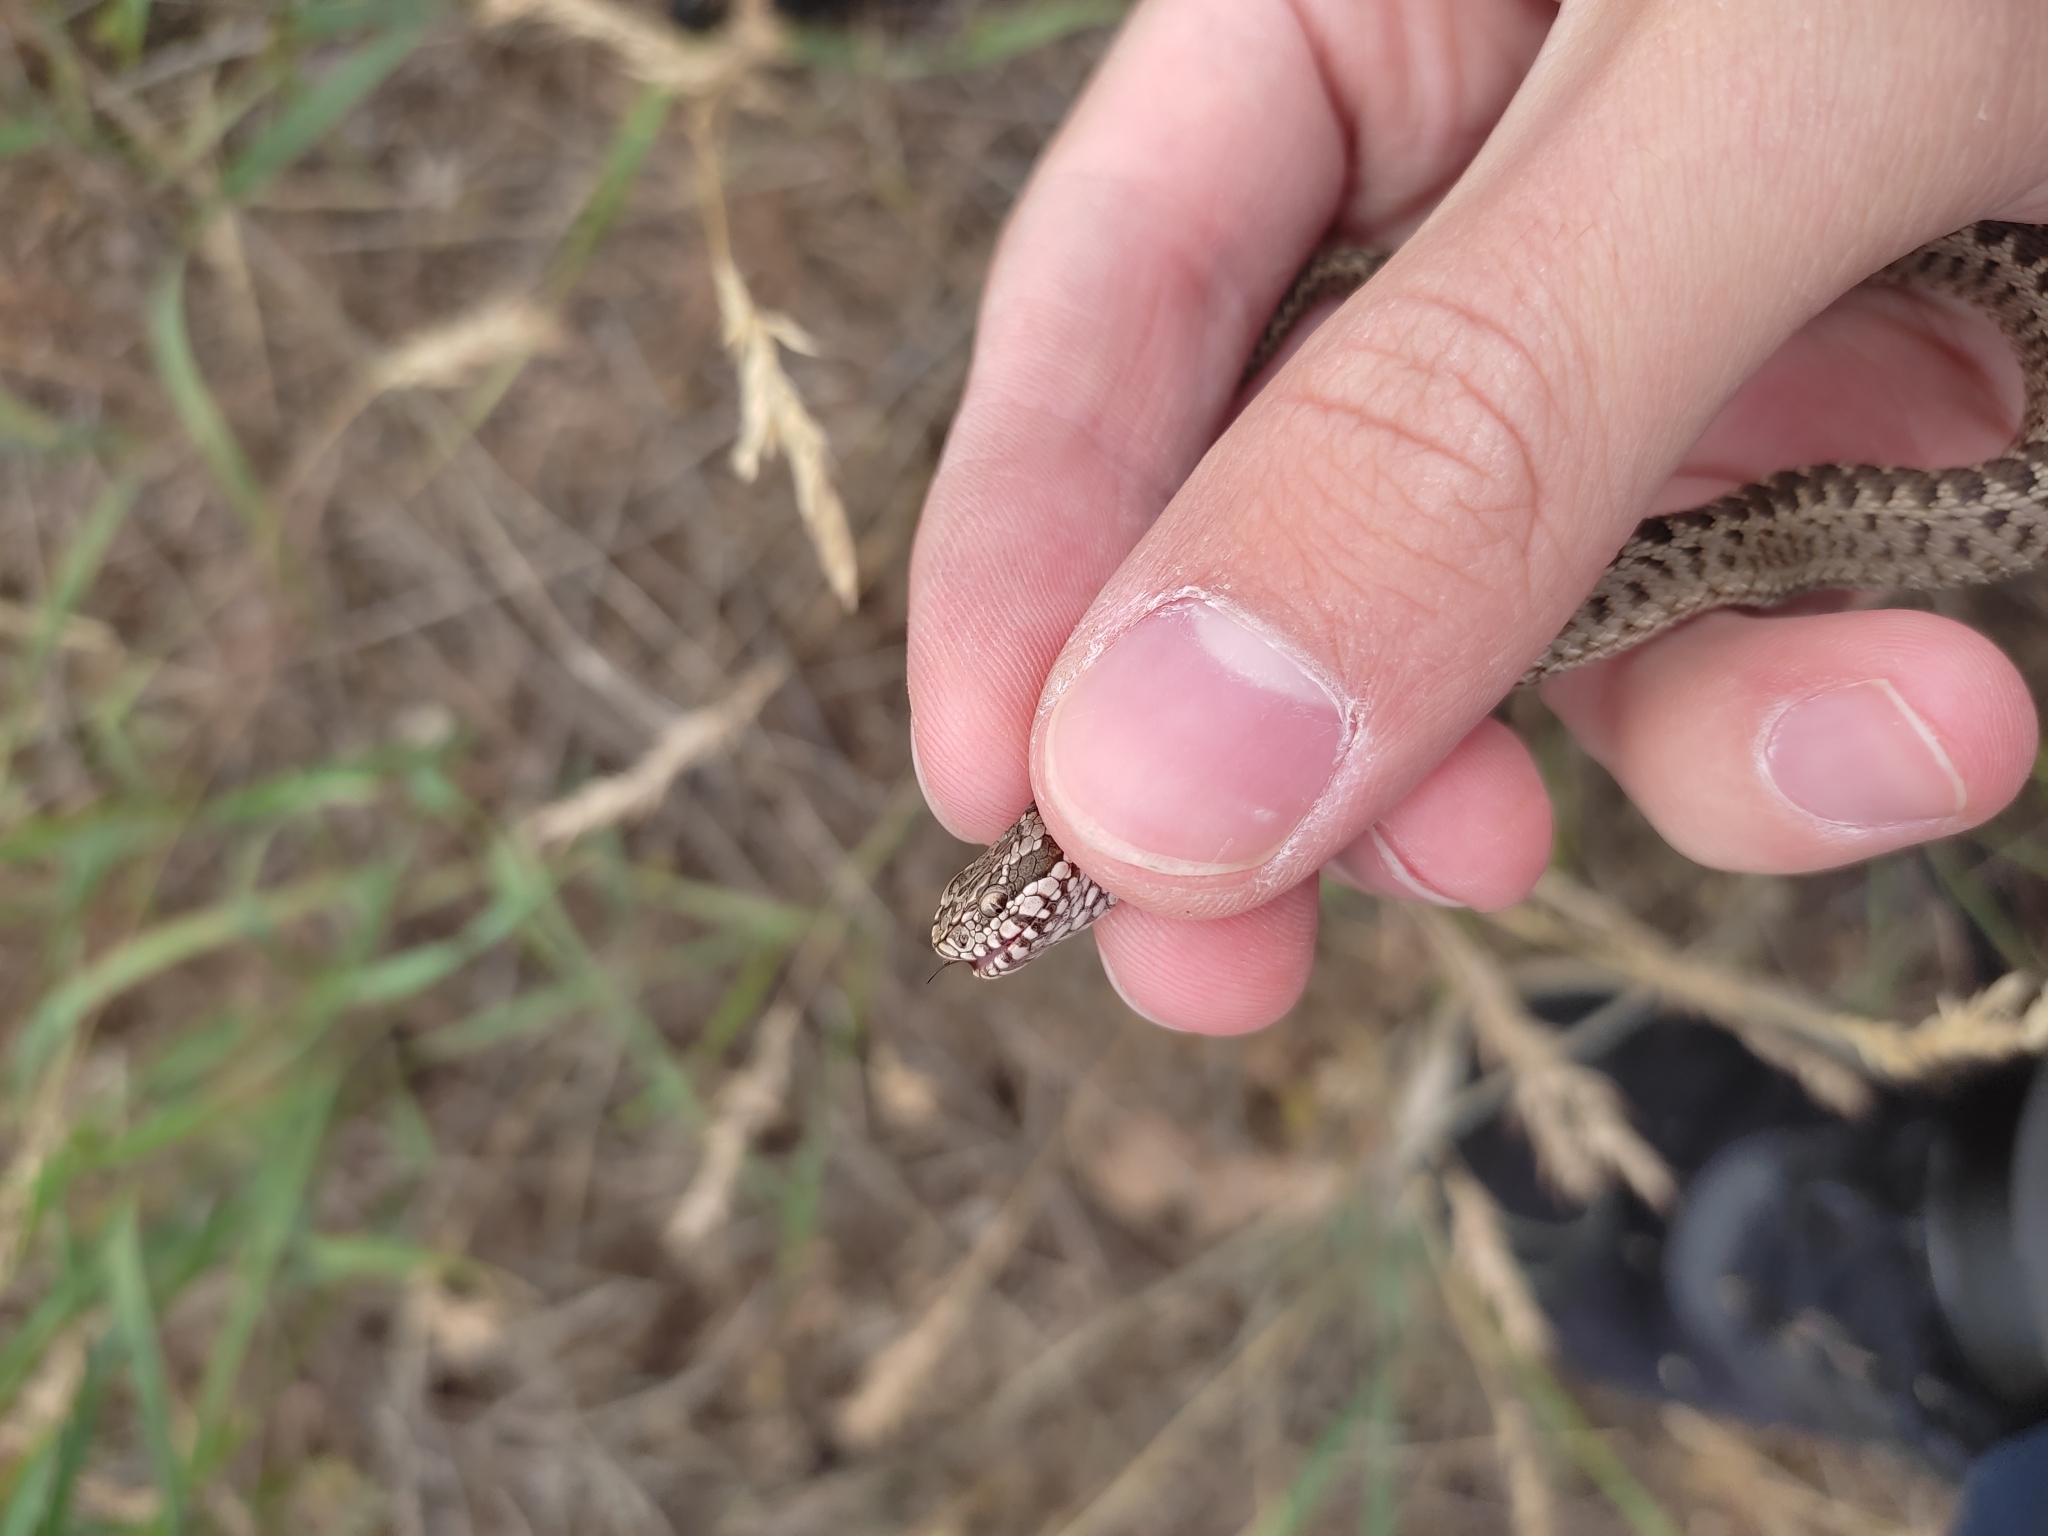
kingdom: Animalia
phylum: Chordata
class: Squamata
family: Viperidae
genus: Vipera
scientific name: Vipera renardi
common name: Eastern steppe viper
